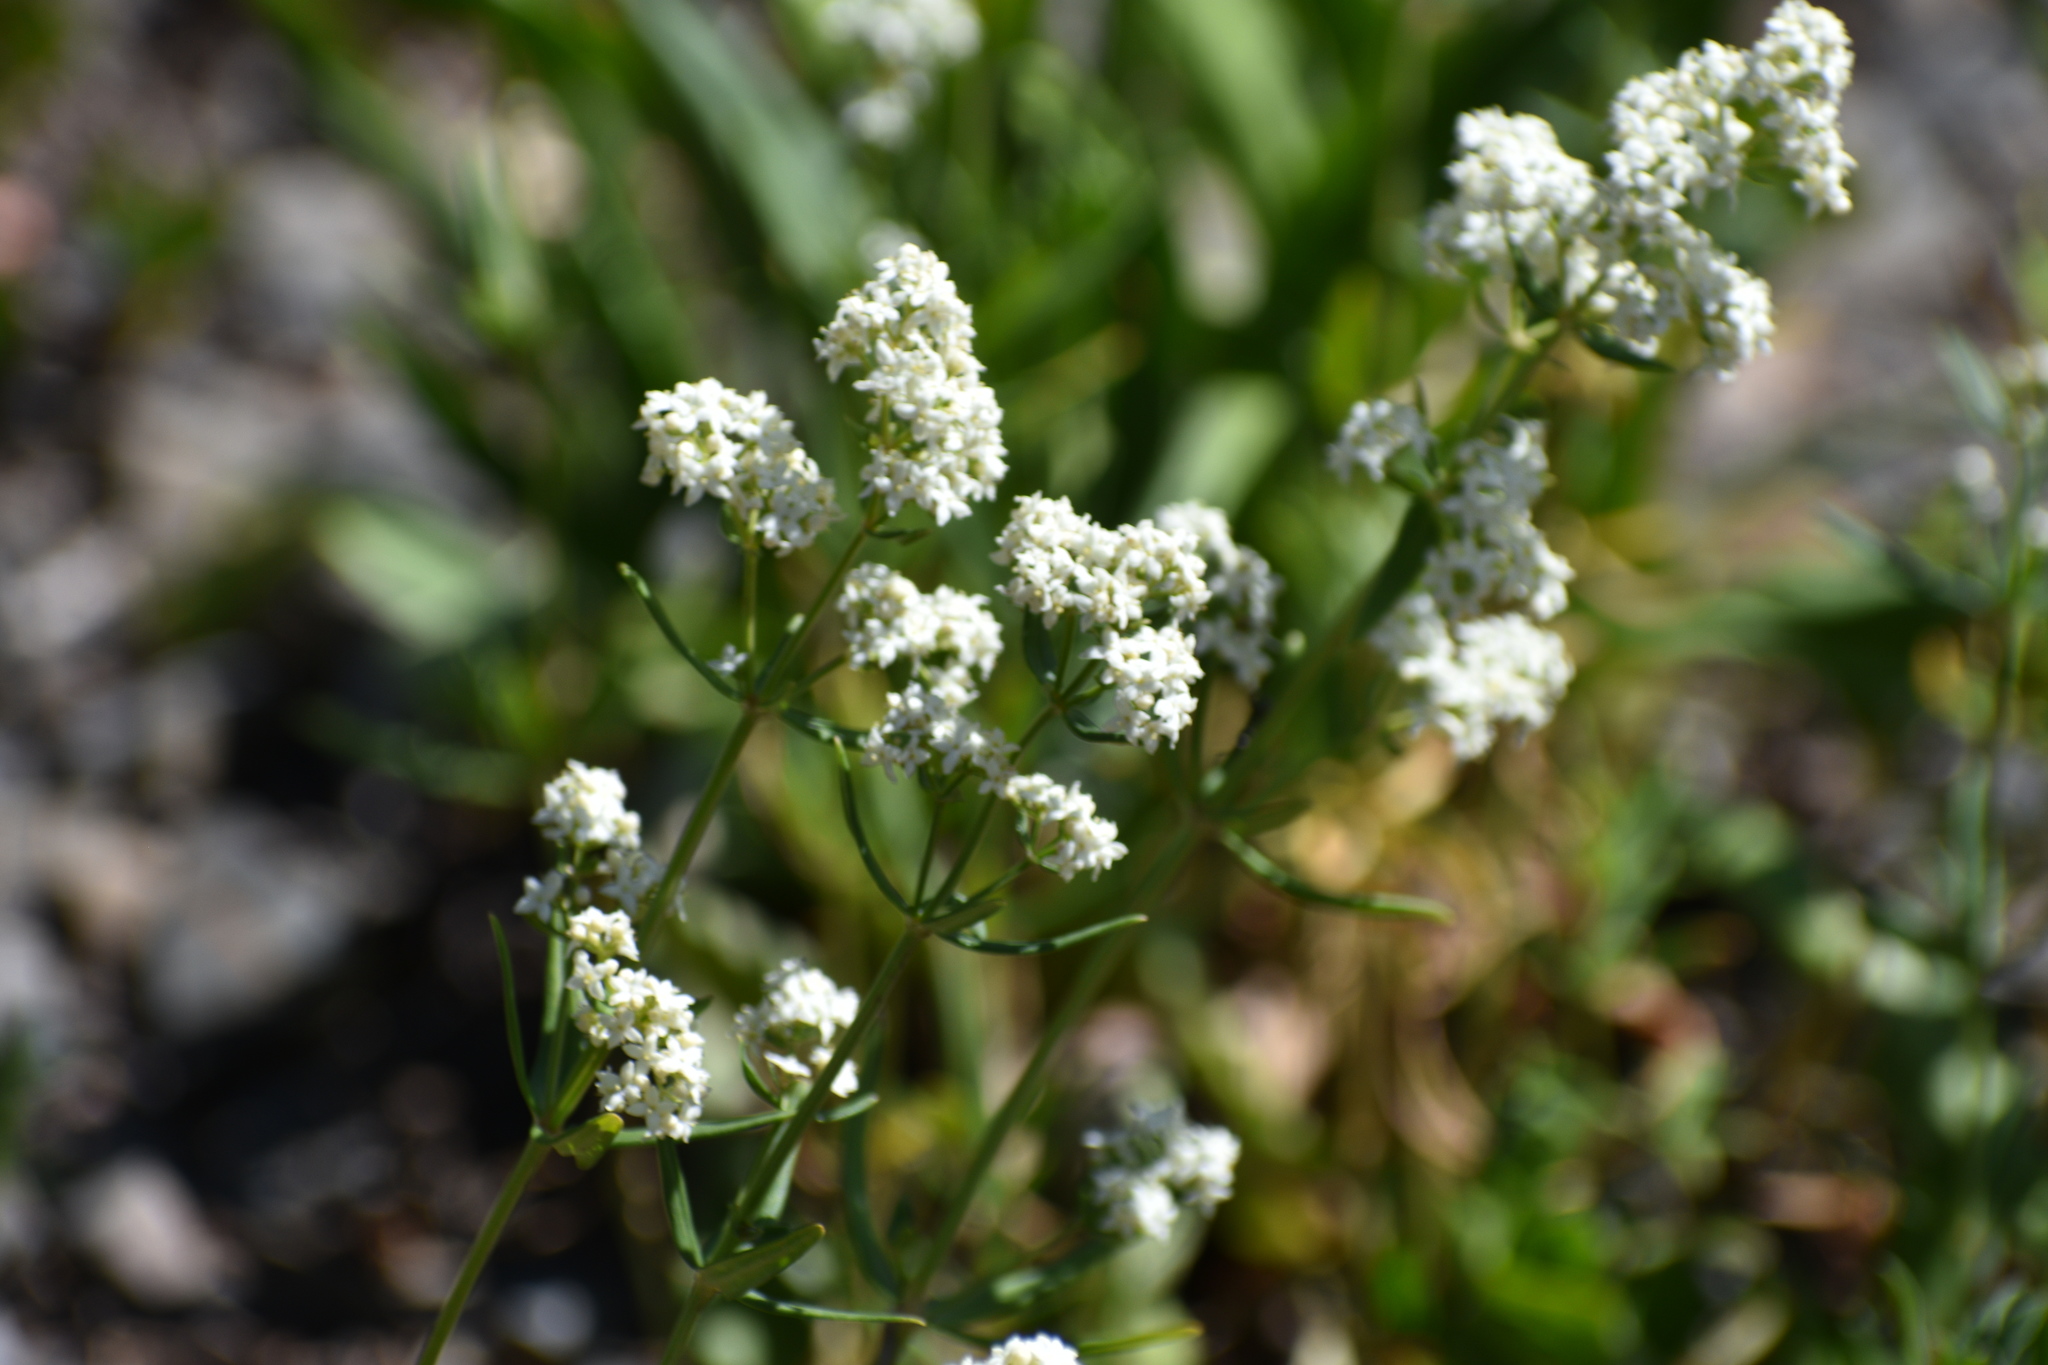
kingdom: Plantae
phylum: Tracheophyta
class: Magnoliopsida
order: Gentianales
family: Rubiaceae
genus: Galium
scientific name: Galium boreale
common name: Northern bedstraw
